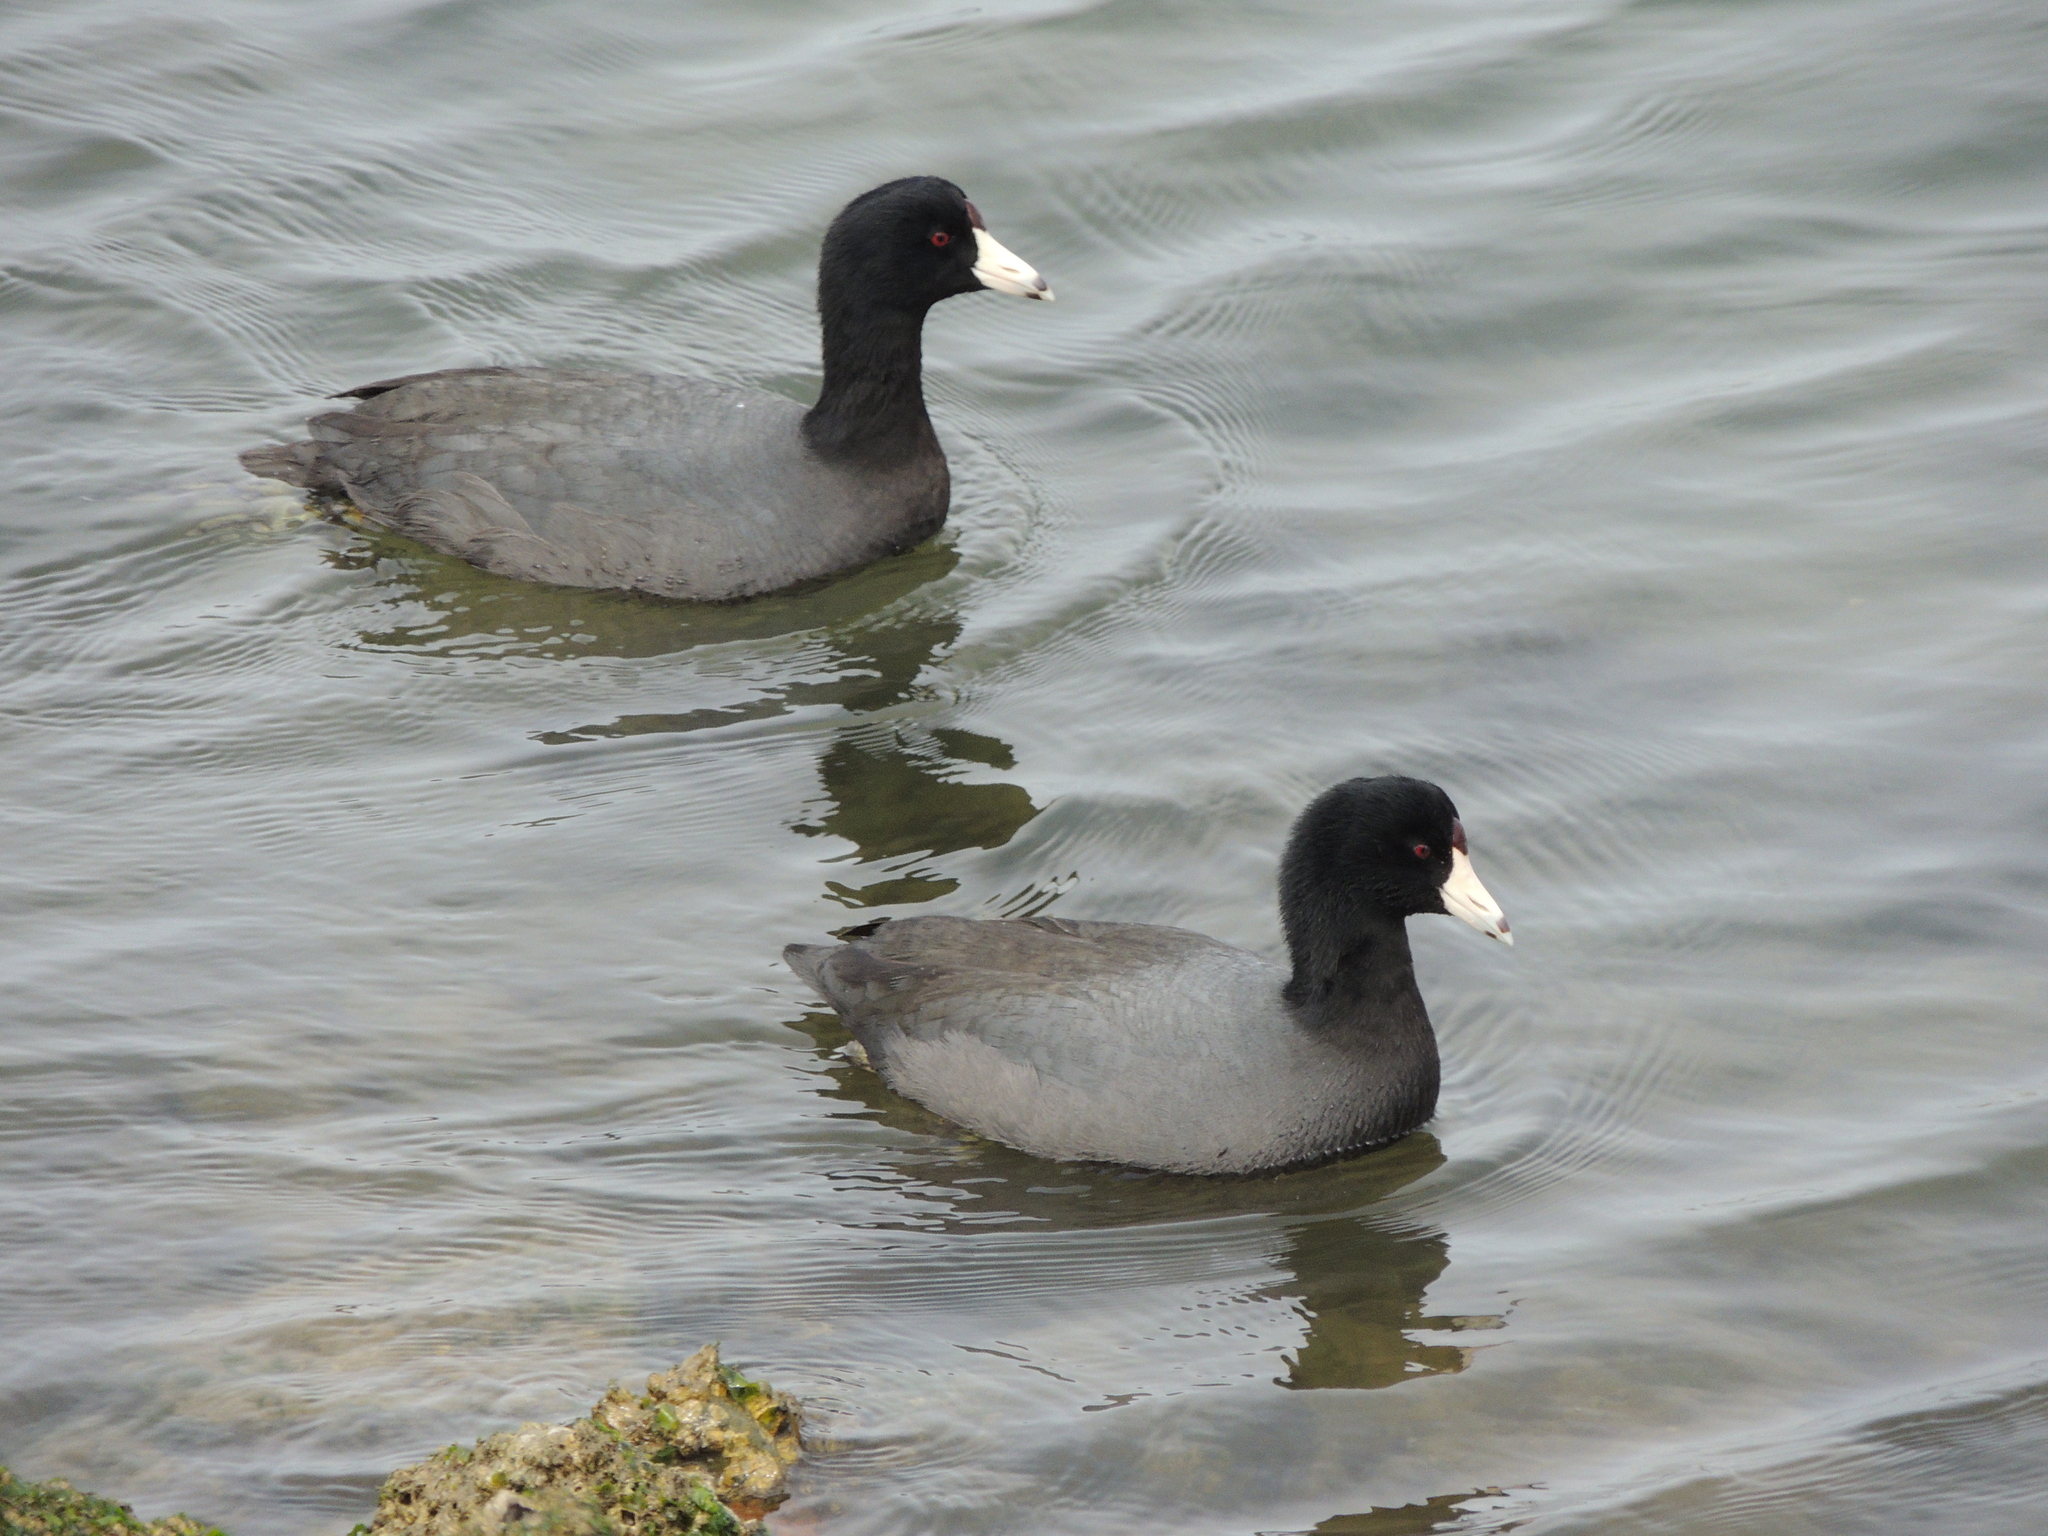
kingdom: Animalia
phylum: Chordata
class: Aves
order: Gruiformes
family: Rallidae
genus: Fulica
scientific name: Fulica americana
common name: American coot
